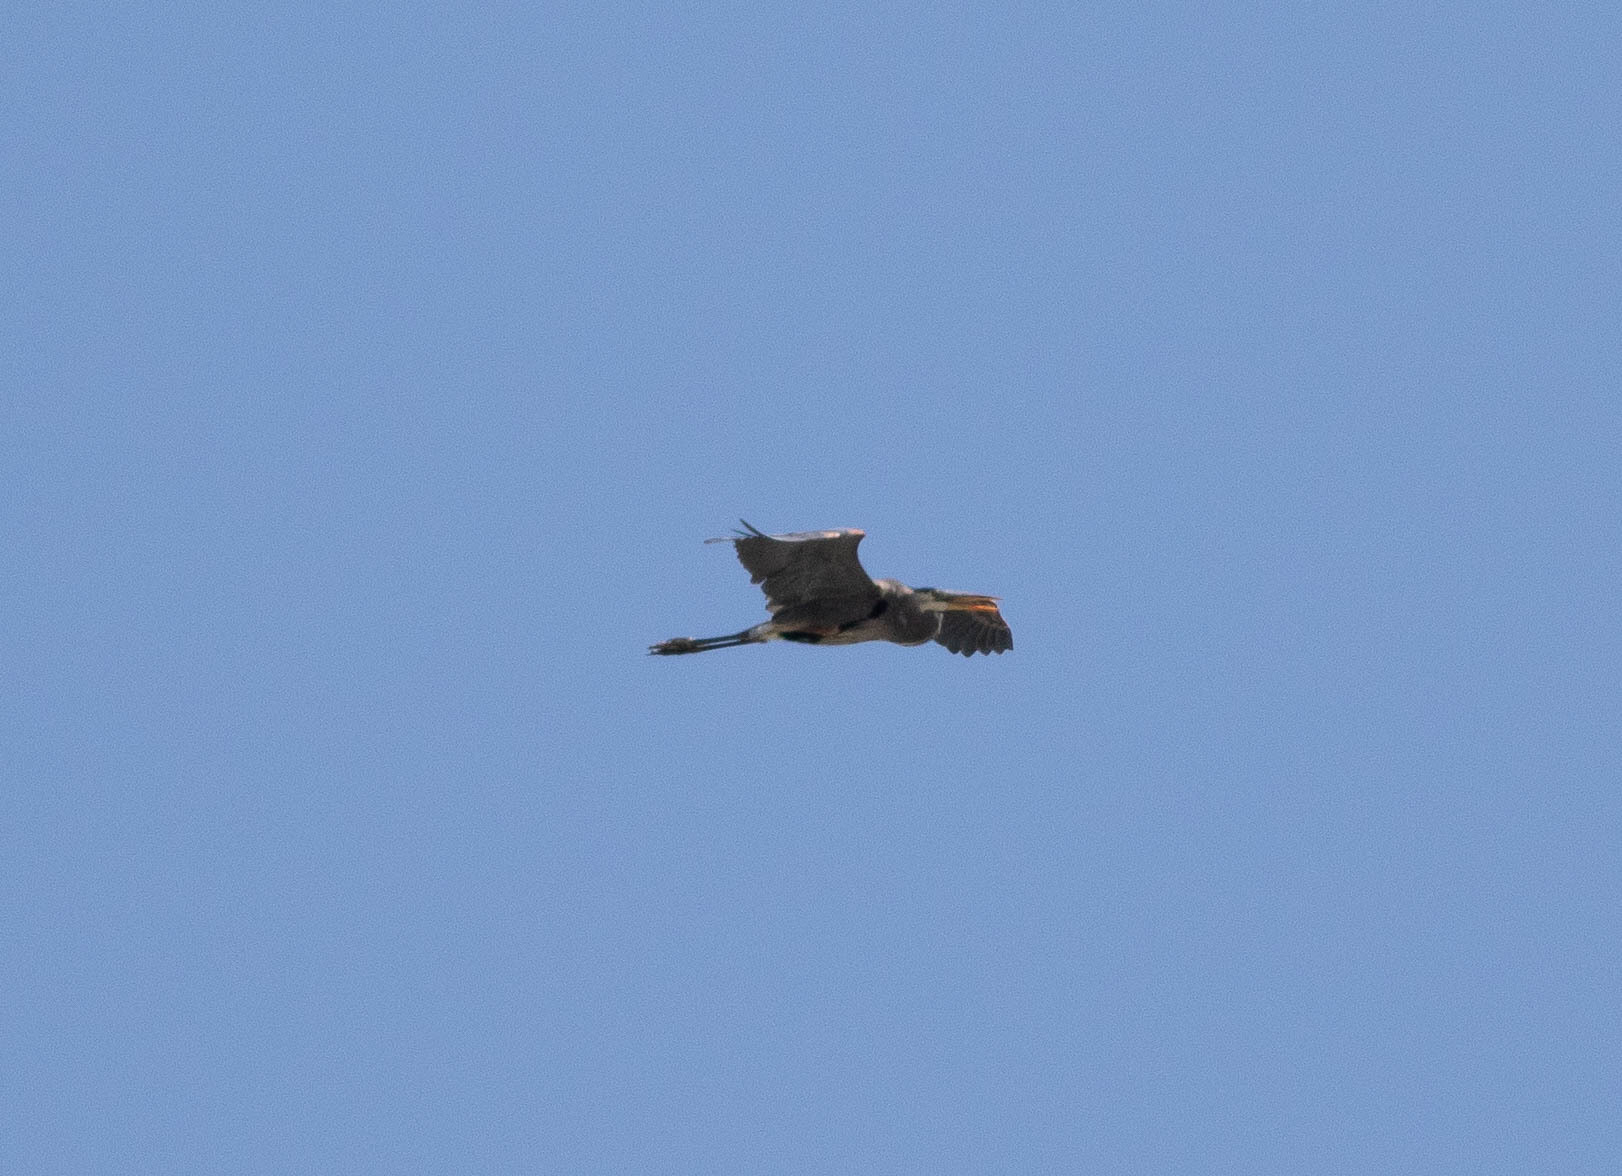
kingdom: Animalia
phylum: Chordata
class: Aves
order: Pelecaniformes
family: Ardeidae
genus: Ardea
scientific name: Ardea herodias
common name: Great blue heron
